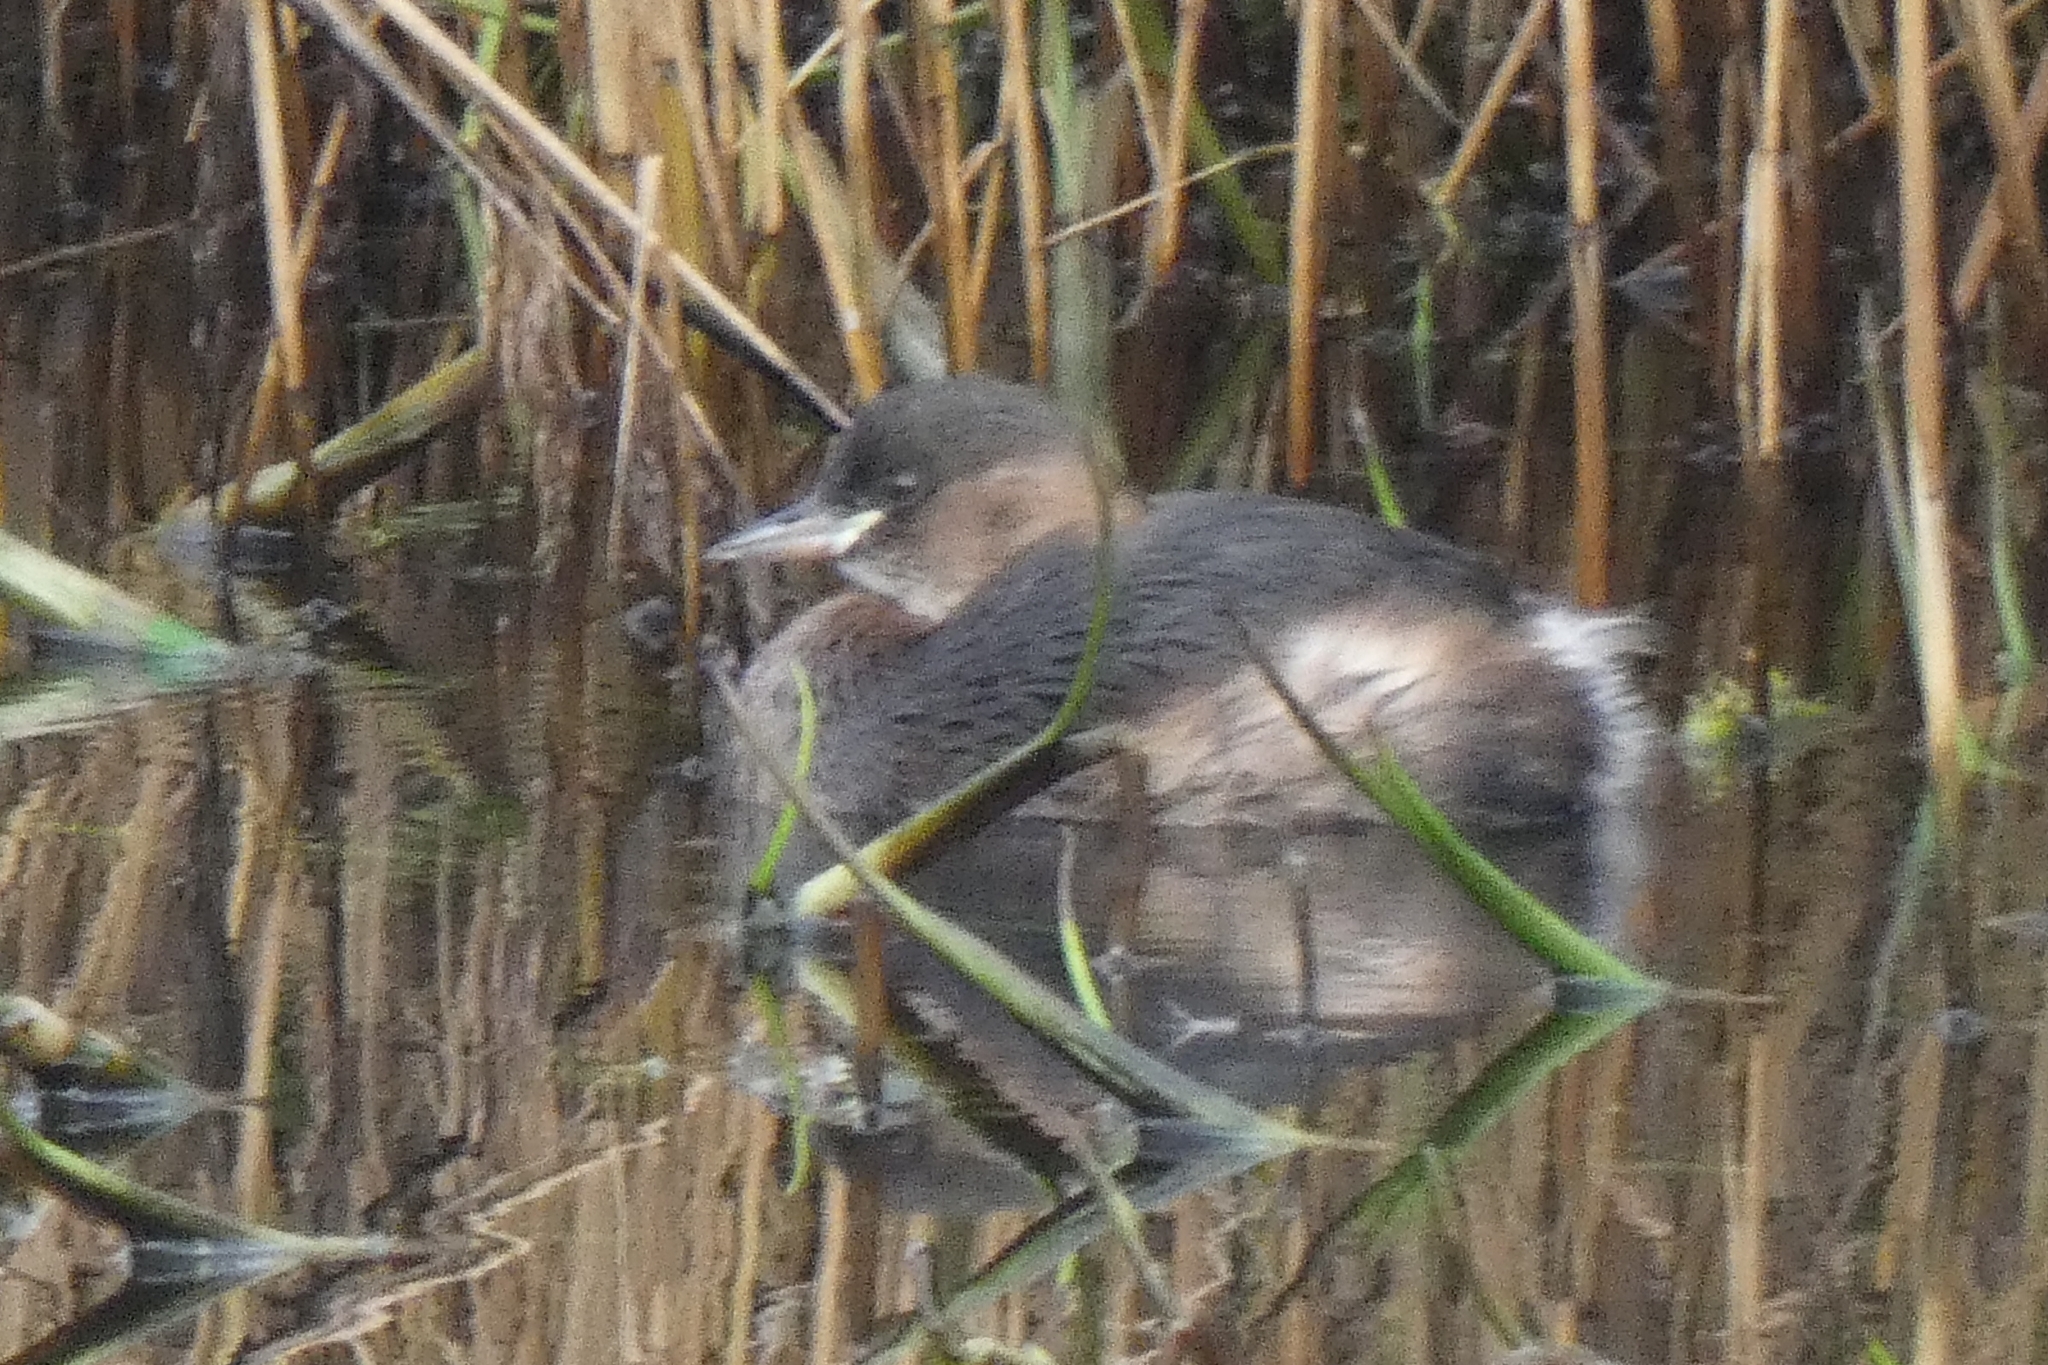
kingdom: Animalia
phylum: Chordata
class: Aves
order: Podicipediformes
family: Podicipedidae
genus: Tachybaptus
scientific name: Tachybaptus ruficollis
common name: Little grebe
